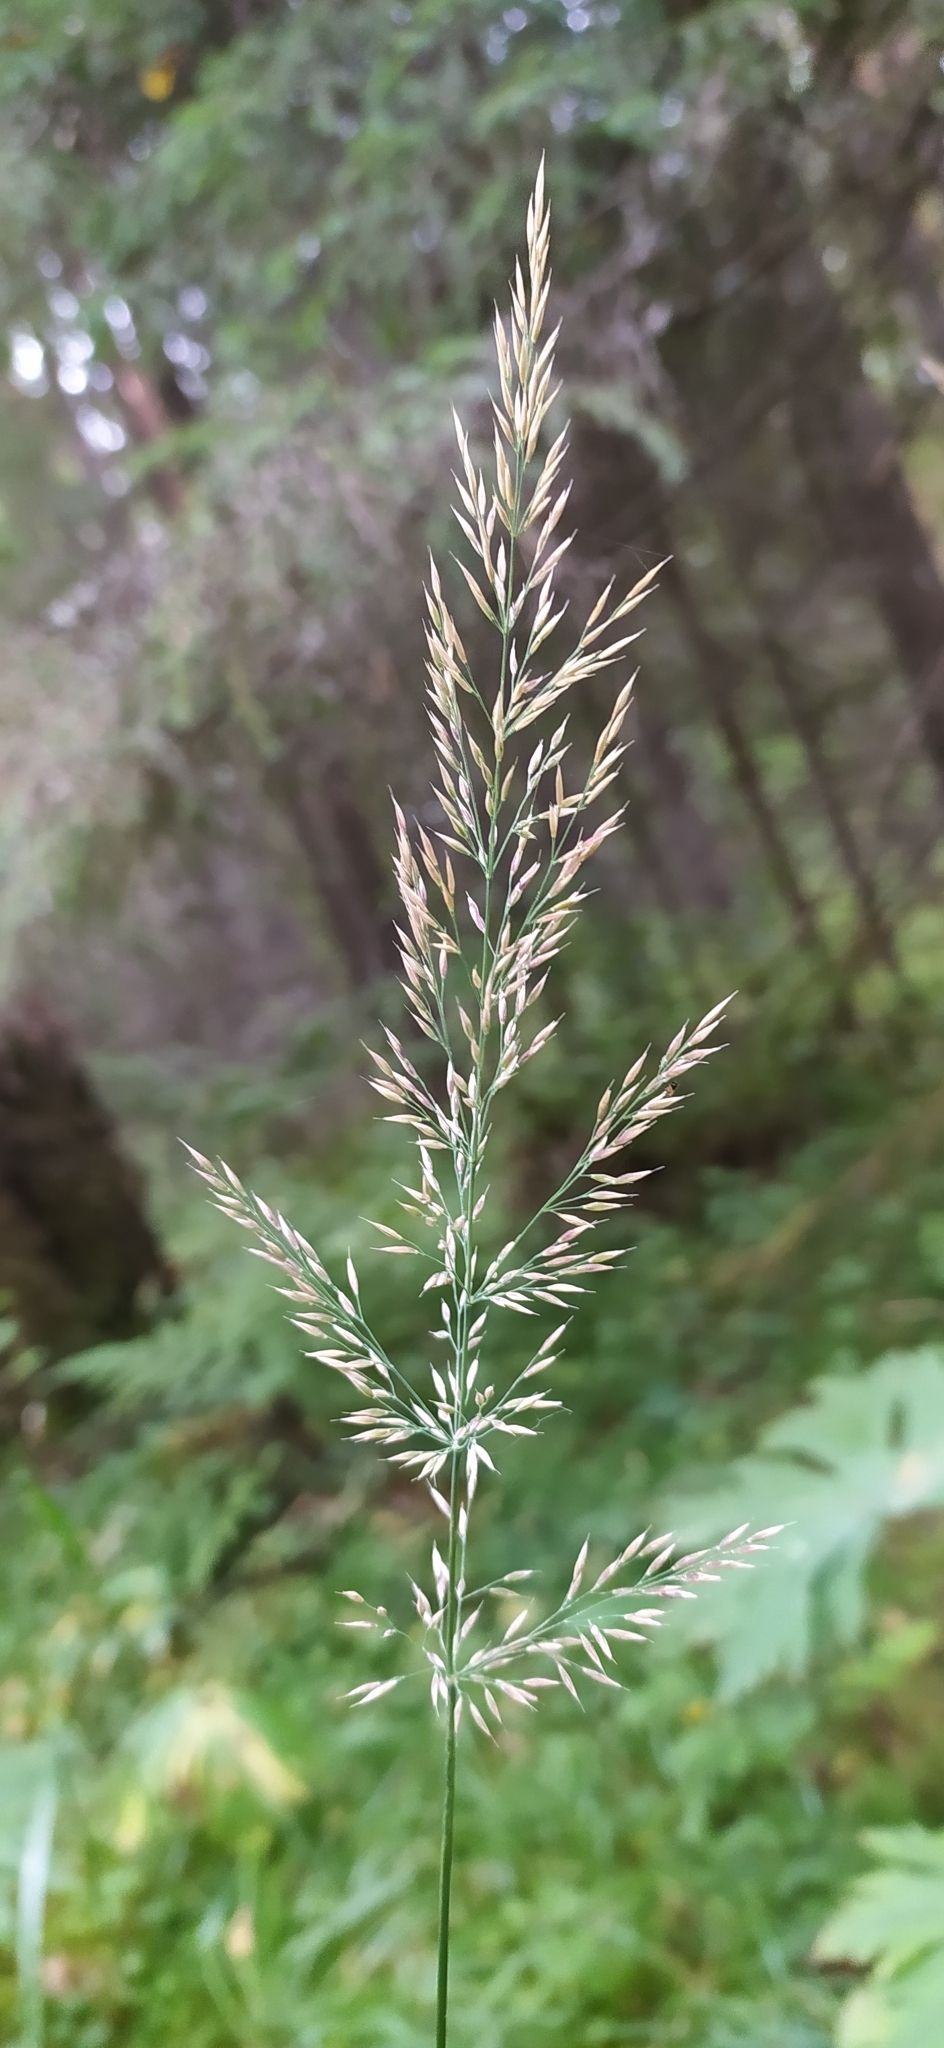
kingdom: Plantae
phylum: Tracheophyta
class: Liliopsida
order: Poales
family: Poaceae
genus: Calamagrostis
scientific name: Calamagrostis arundinacea
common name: Metskastik
